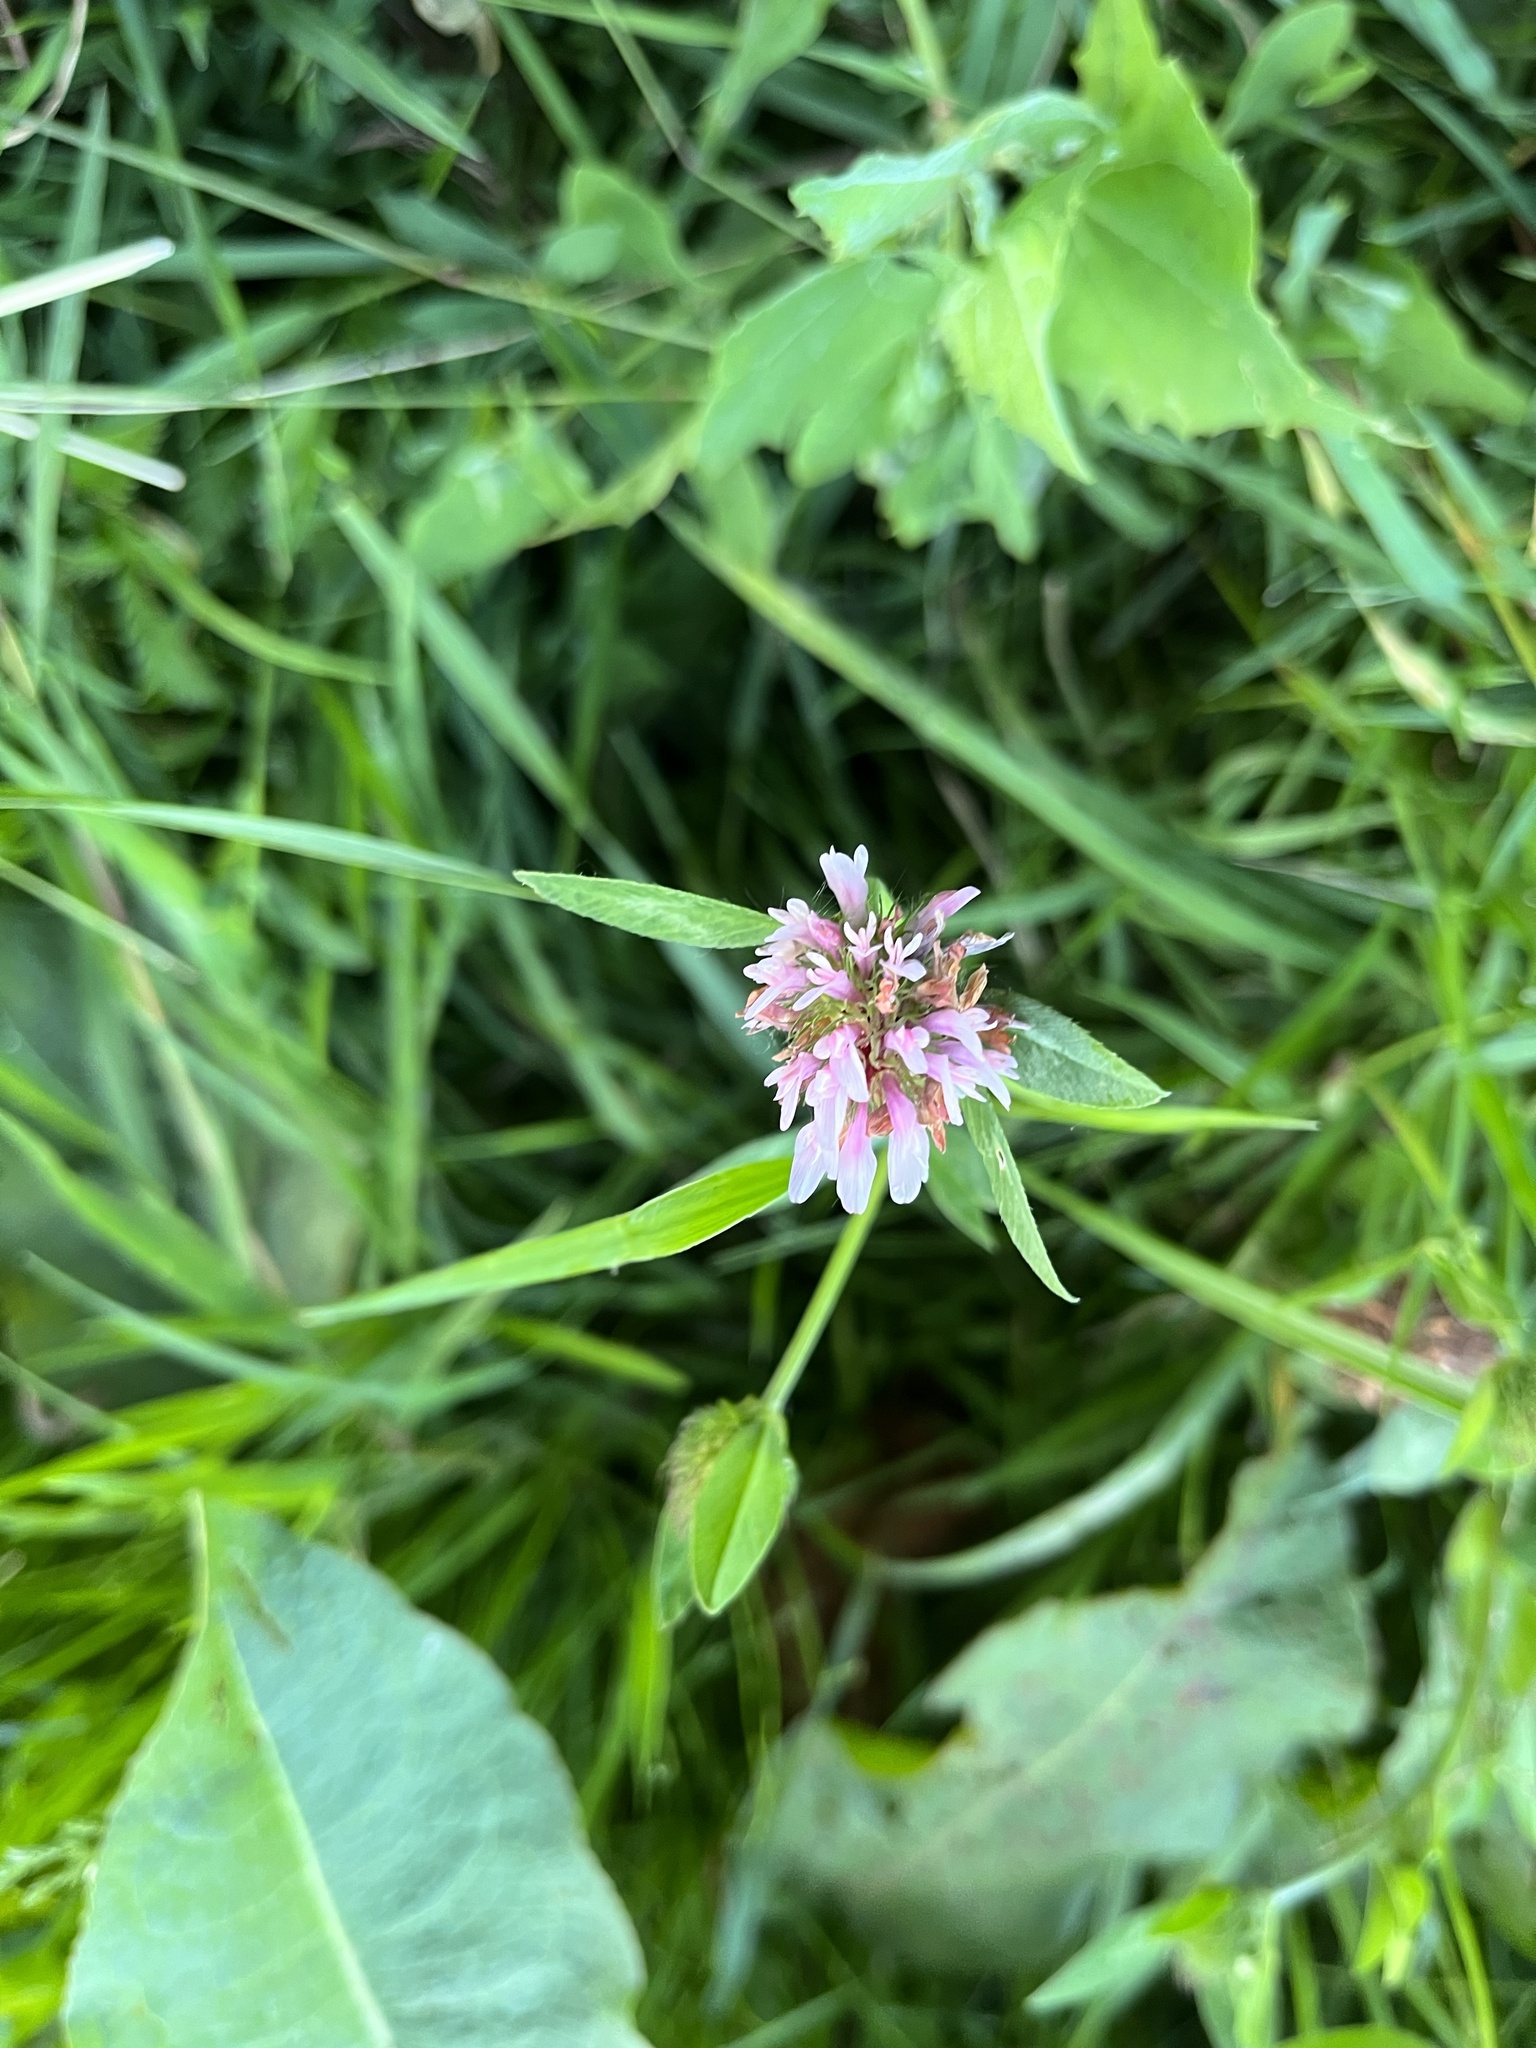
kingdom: Plantae
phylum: Tracheophyta
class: Magnoliopsida
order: Fabales
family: Fabaceae
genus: Trifolium
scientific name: Trifolium pratense
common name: Red clover
